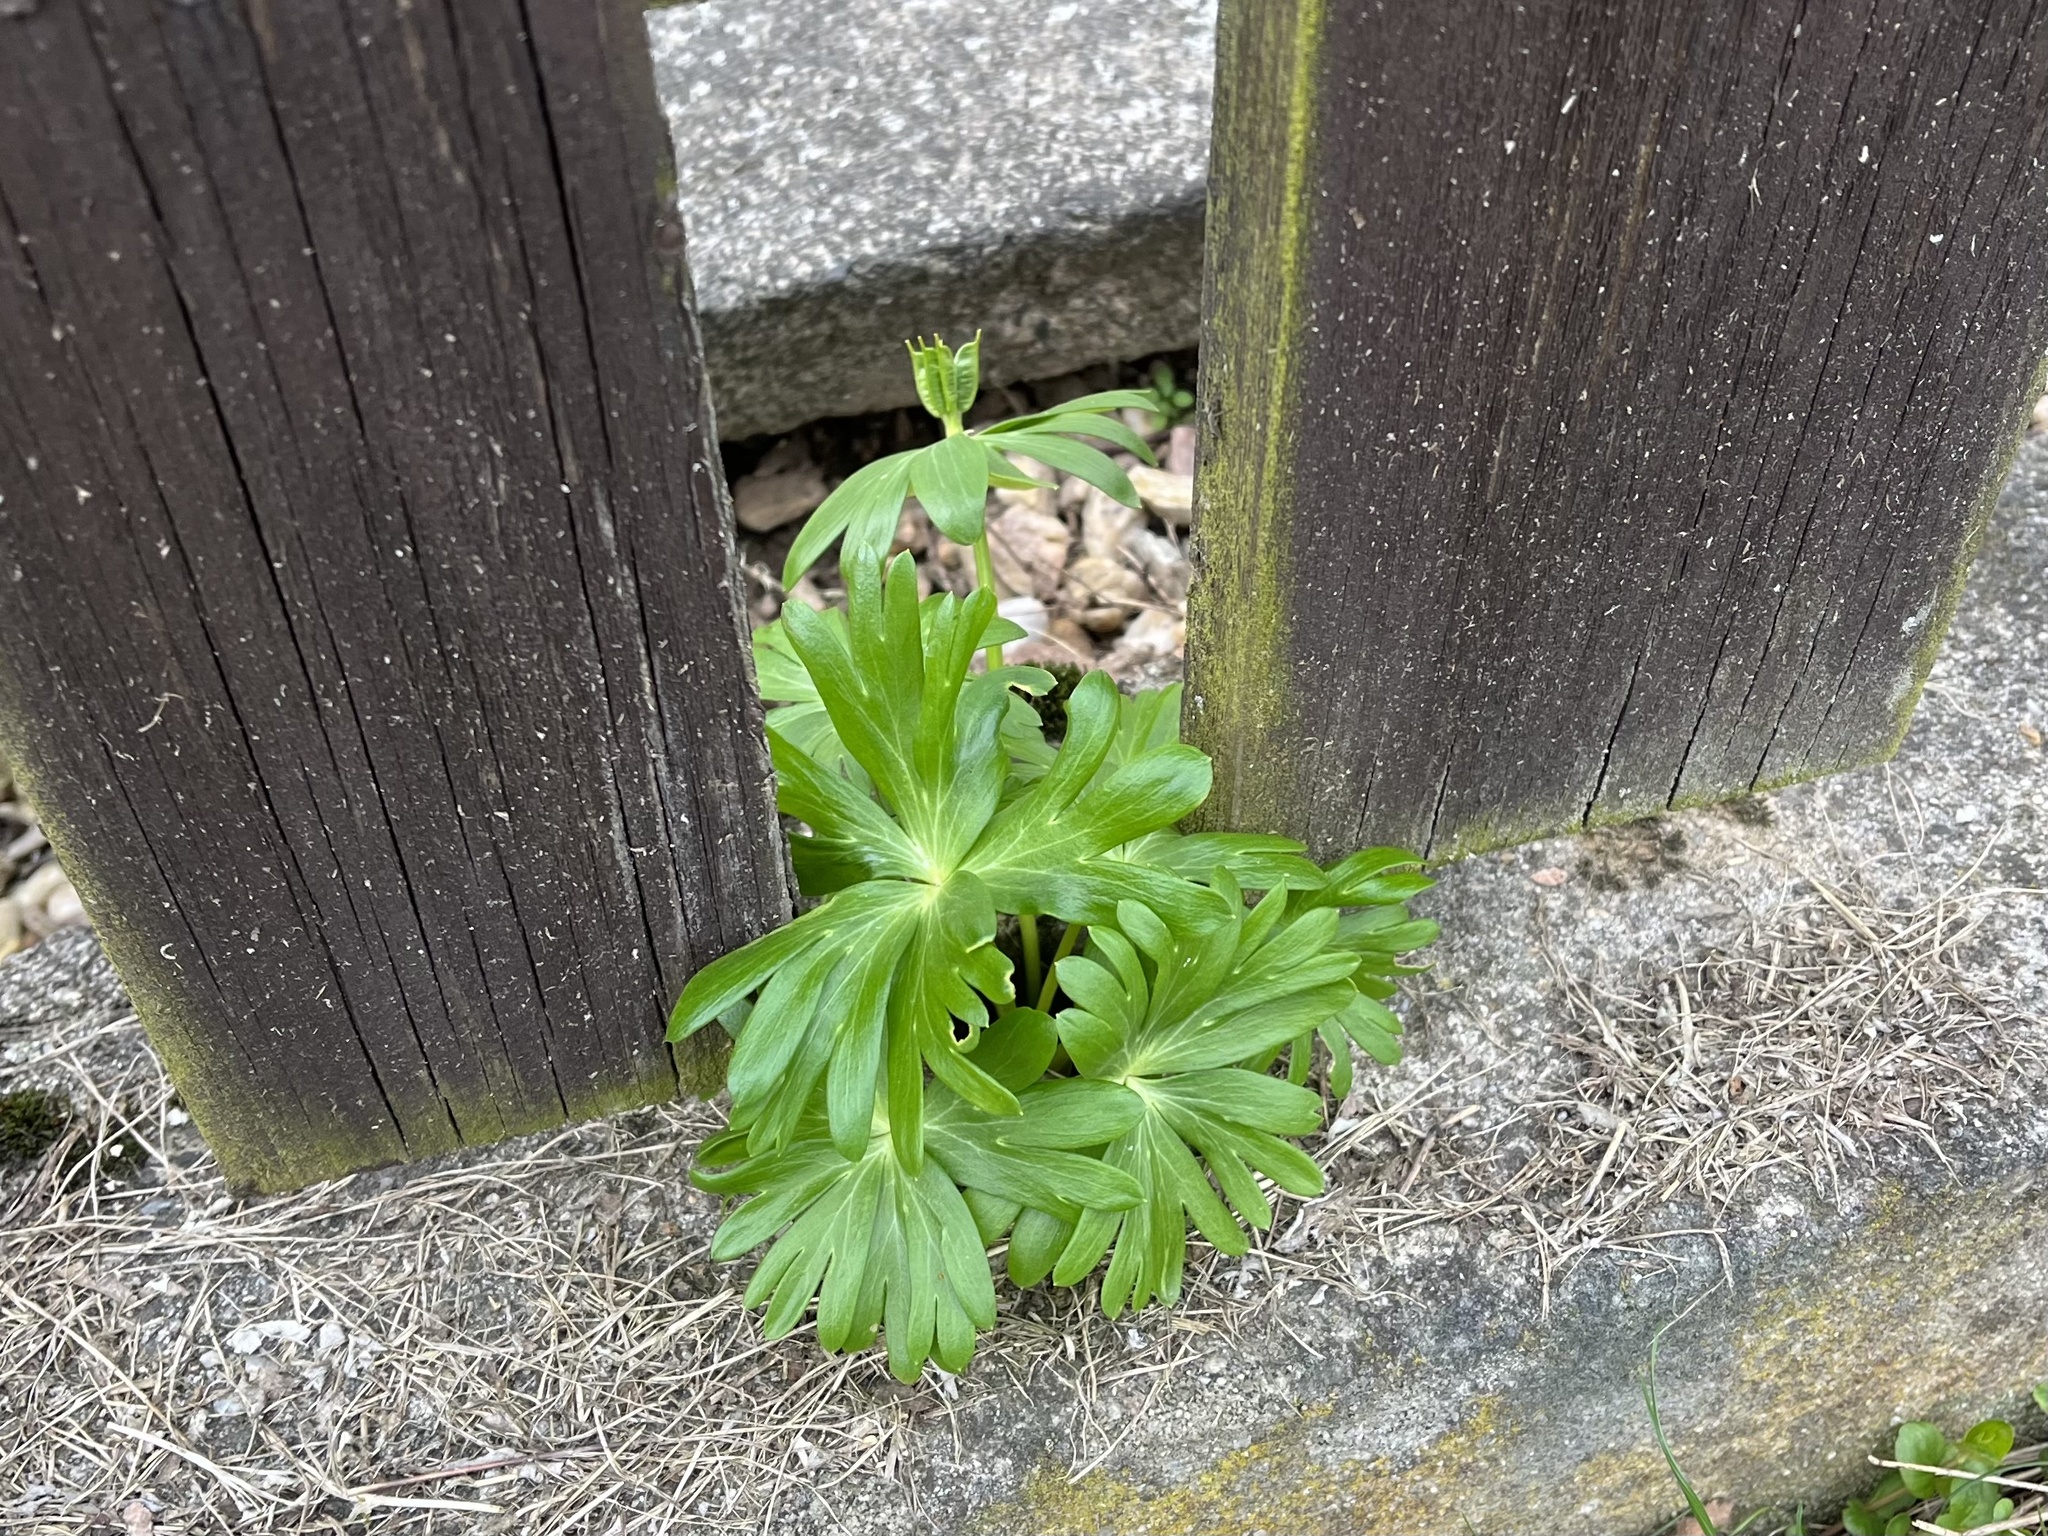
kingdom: Plantae
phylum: Tracheophyta
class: Magnoliopsida
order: Ranunculales
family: Ranunculaceae
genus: Eranthis
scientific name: Eranthis hyemalis
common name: Winter aconite
